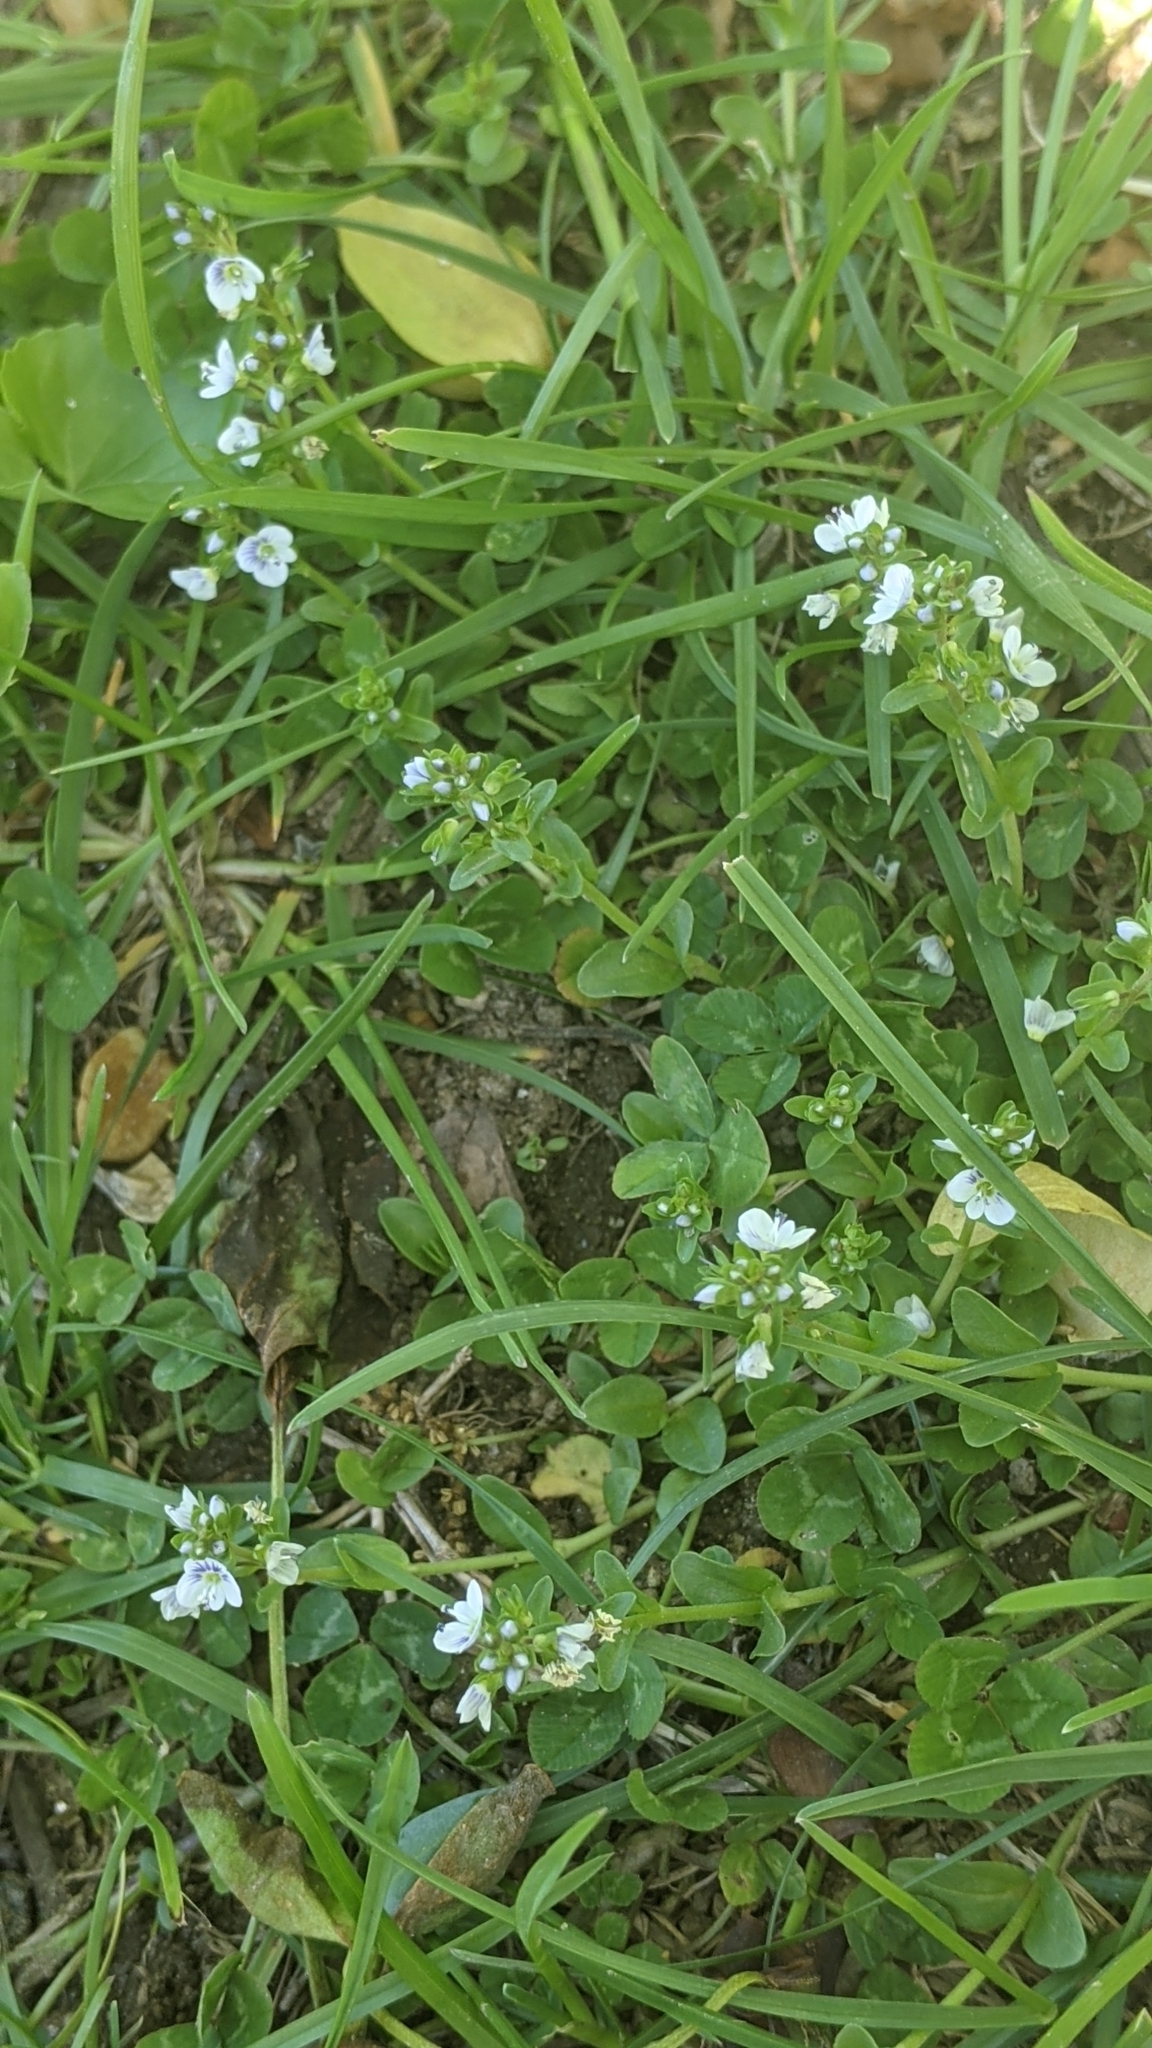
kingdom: Plantae
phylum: Tracheophyta
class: Magnoliopsida
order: Lamiales
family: Plantaginaceae
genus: Veronica
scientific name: Veronica serpyllifolia
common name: Thyme-leaved speedwell
